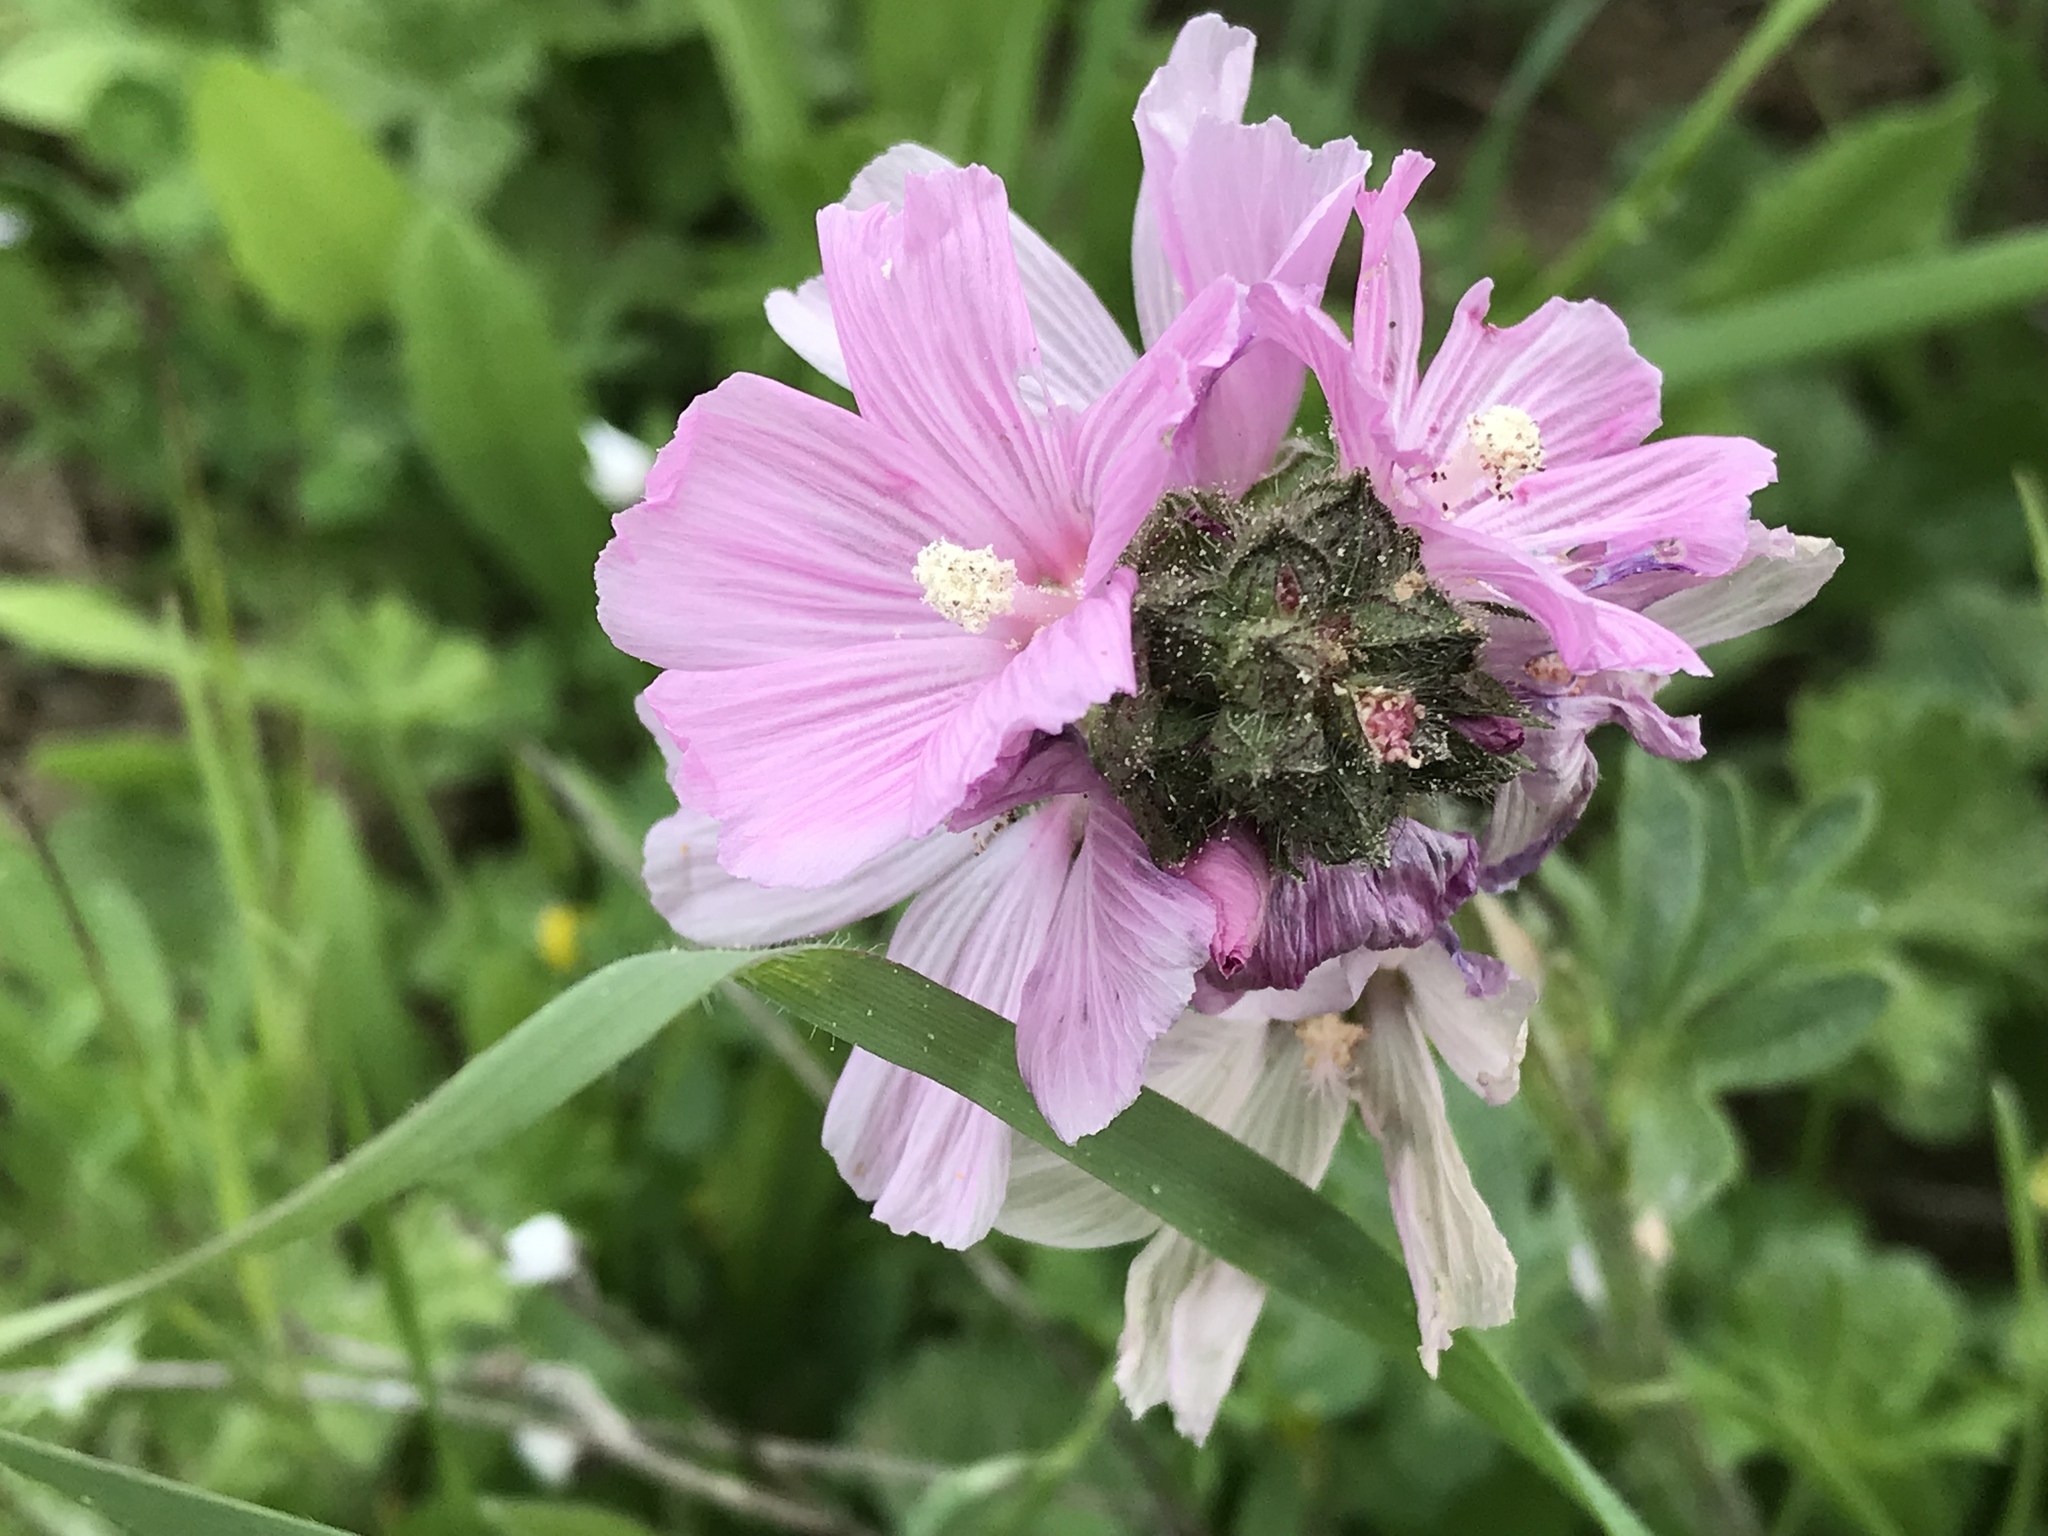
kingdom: Plantae
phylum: Tracheophyta
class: Magnoliopsida
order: Malvales
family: Malvaceae
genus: Sidalcea
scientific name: Sidalcea malviflora
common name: Greek mallow
